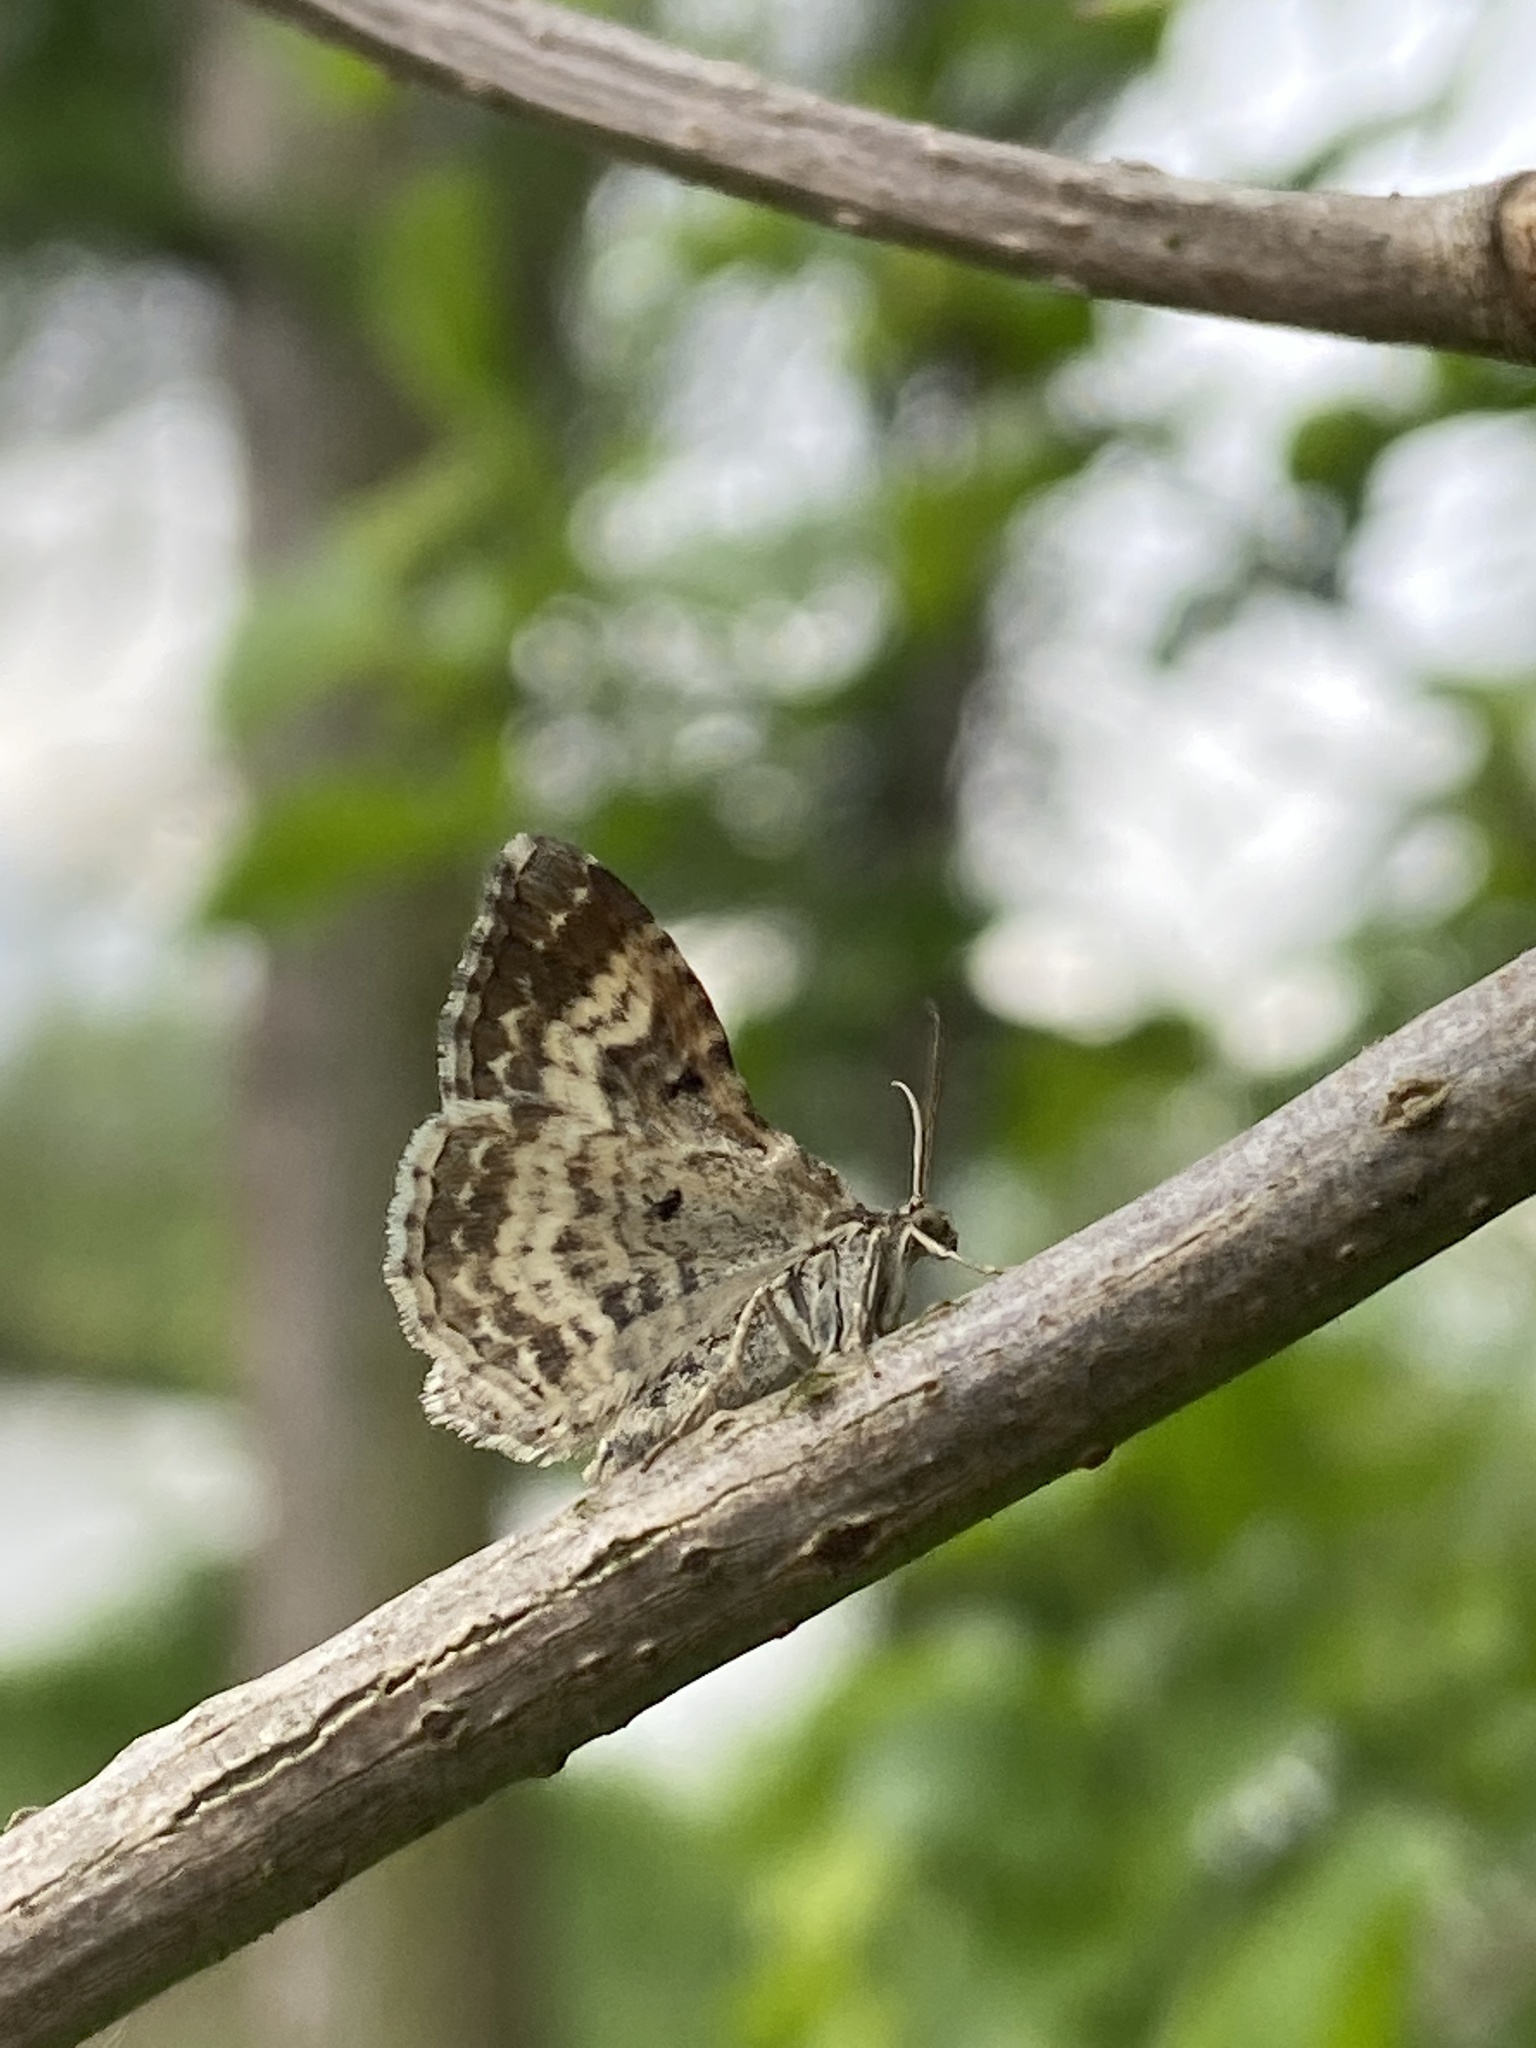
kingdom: Animalia
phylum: Arthropoda
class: Insecta
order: Lepidoptera
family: Geometridae
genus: Epirrhoe
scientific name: Epirrhoe alternata
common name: Common carpet
